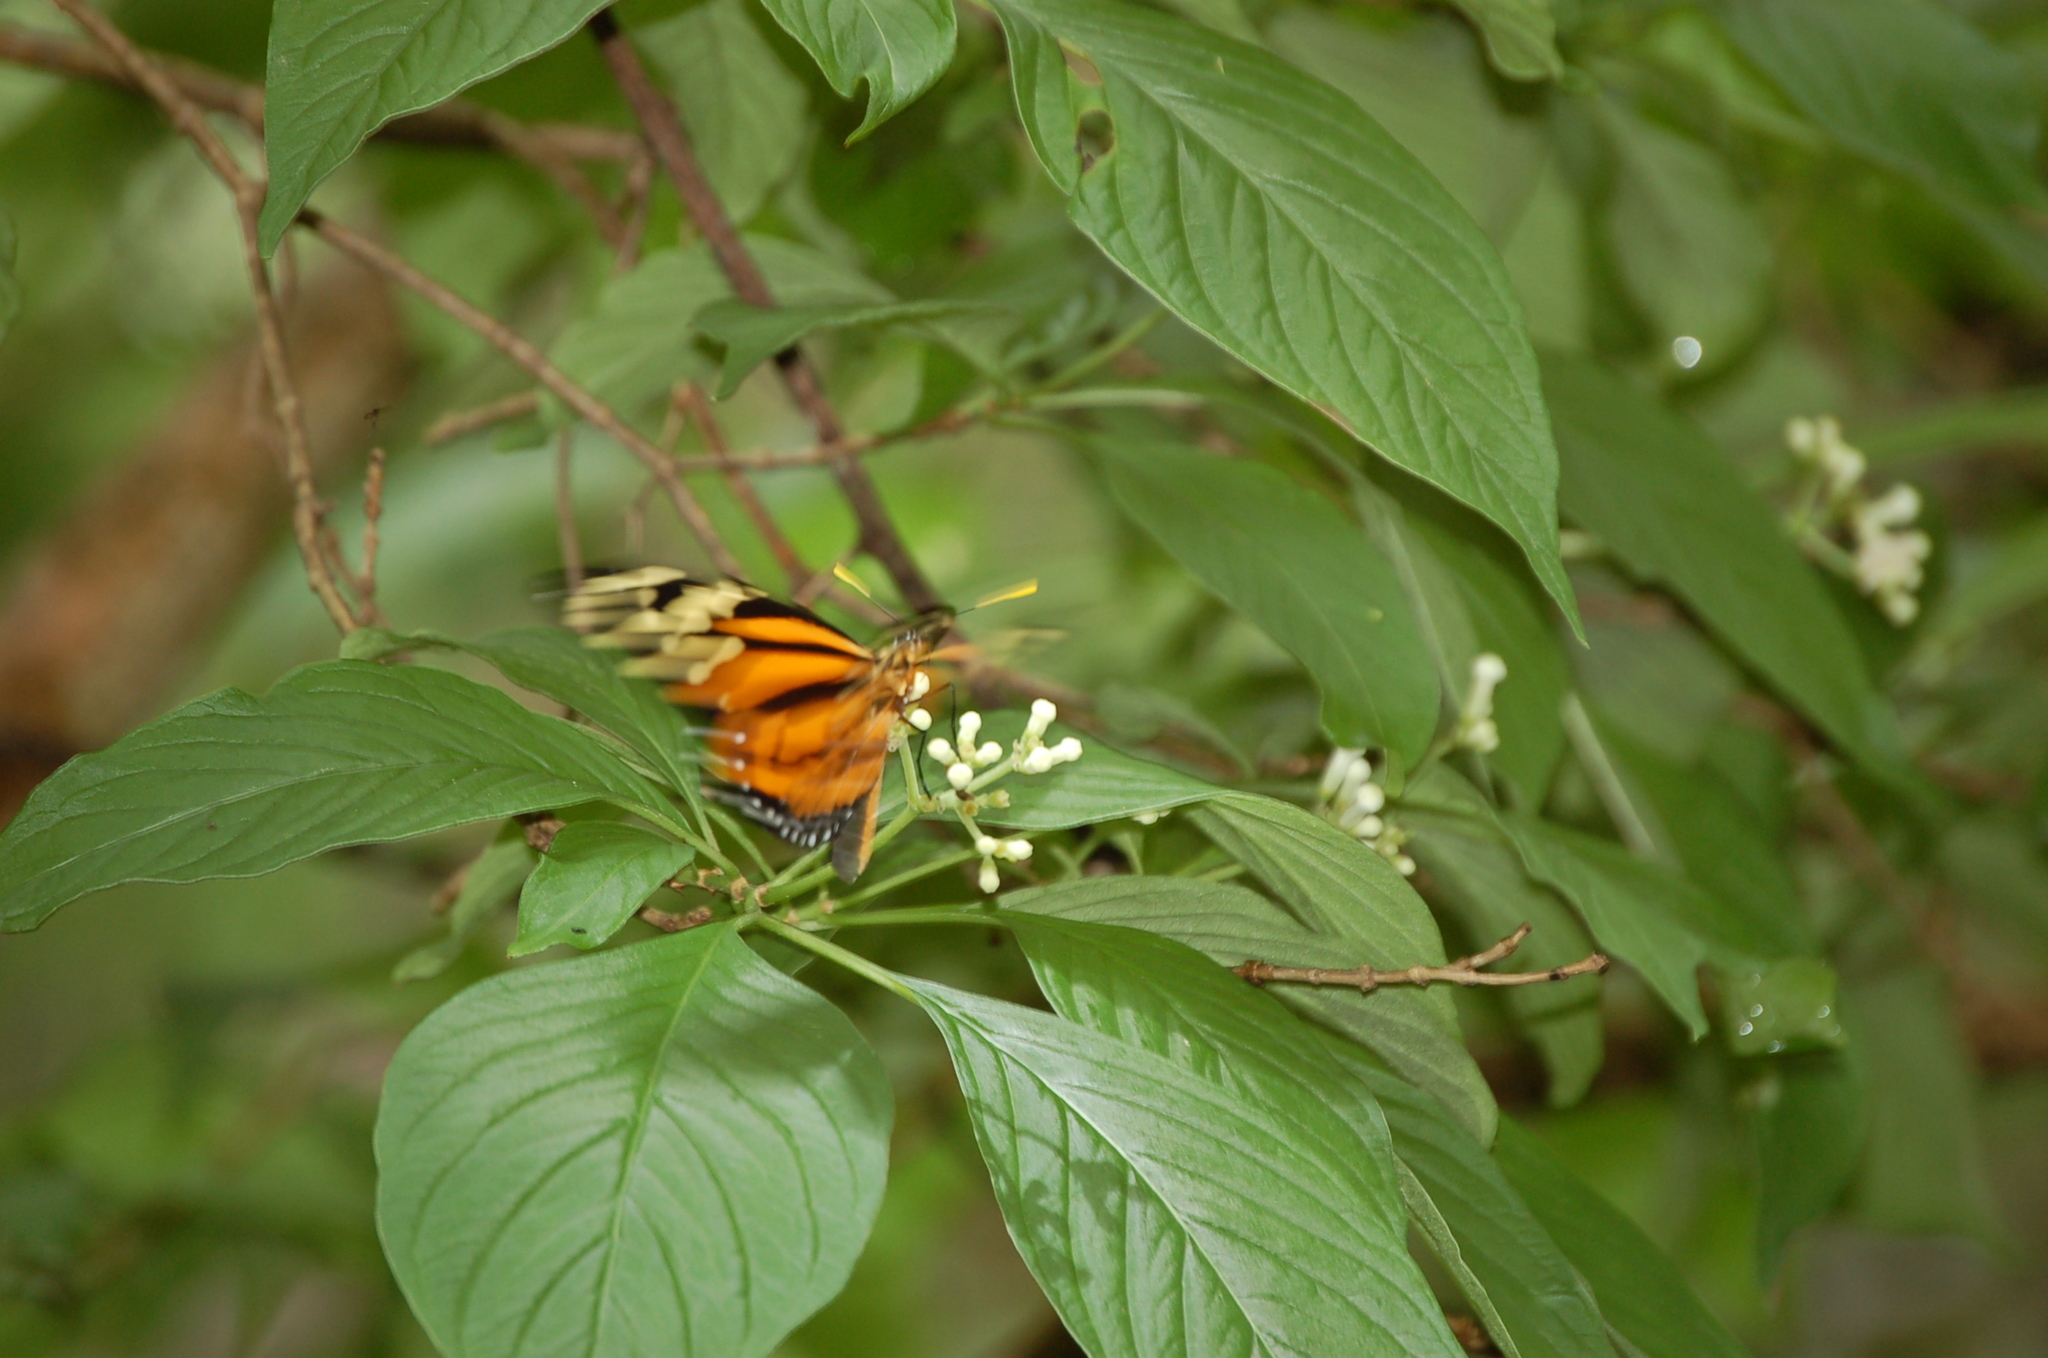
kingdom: Animalia
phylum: Arthropoda
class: Insecta
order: Lepidoptera
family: Nymphalidae
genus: Lycorea
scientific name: Lycorea cleobaea
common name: Tiger mimic-queen
